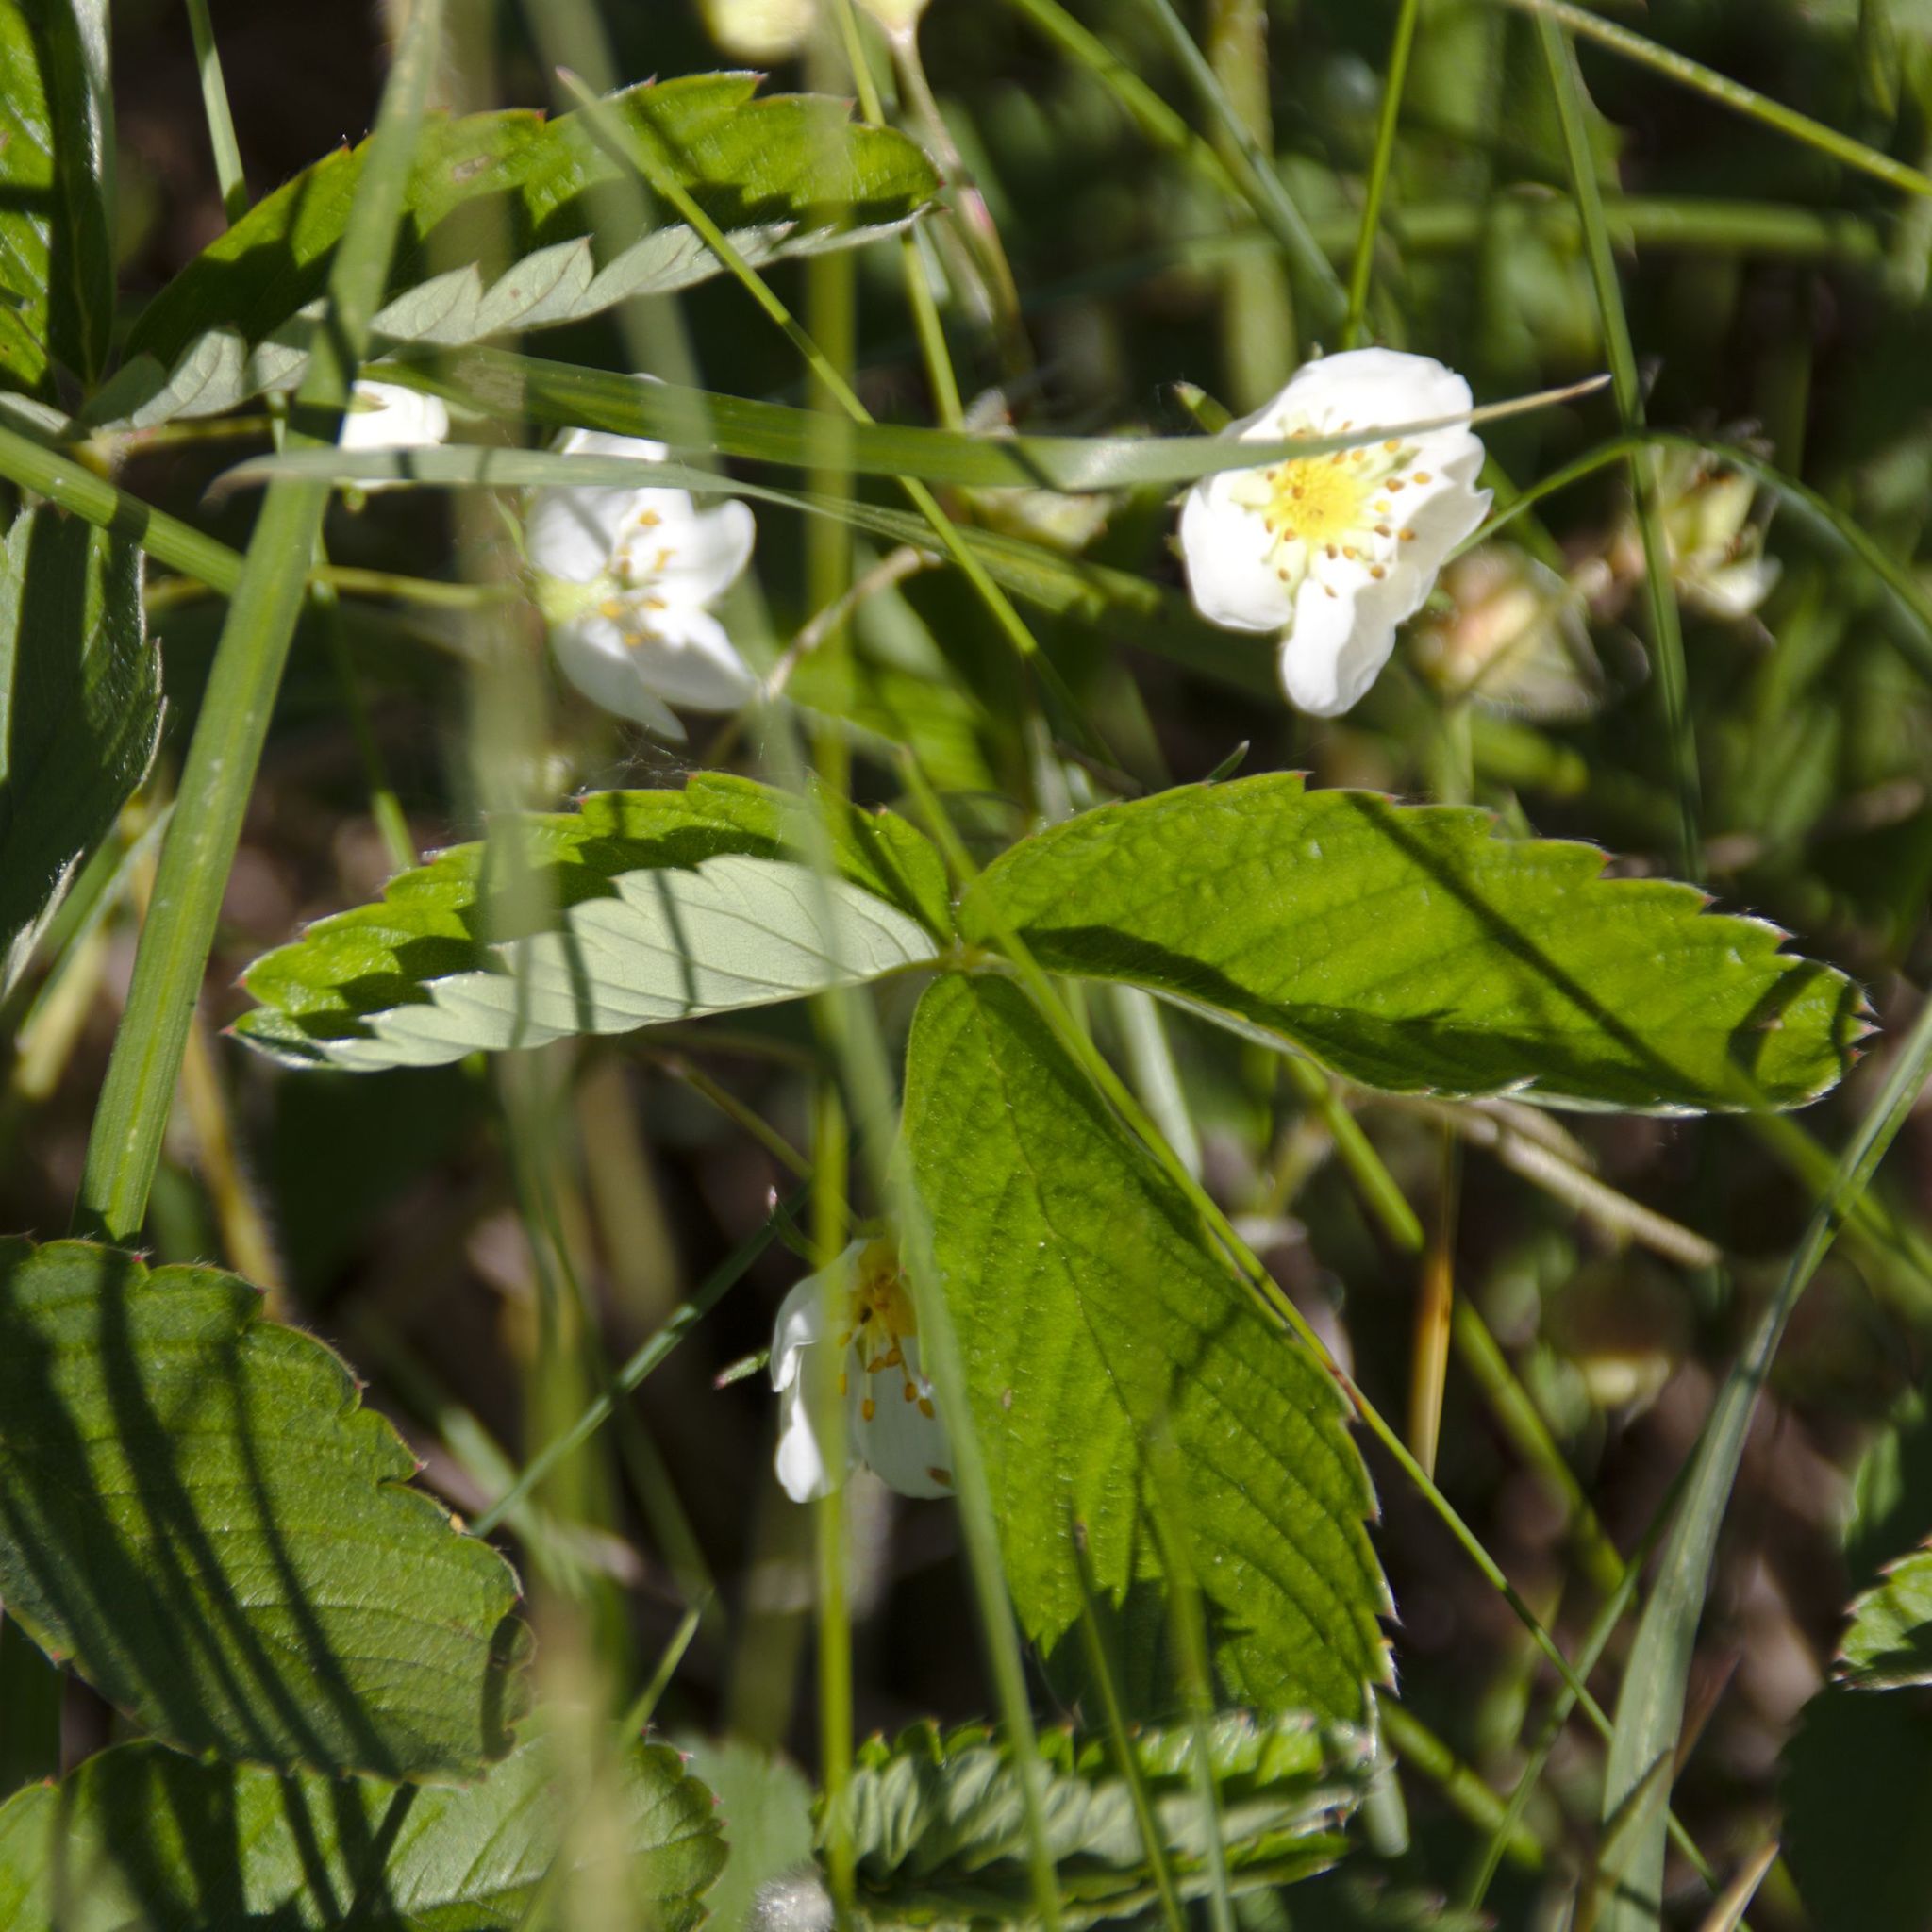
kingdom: Plantae
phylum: Tracheophyta
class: Magnoliopsida
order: Rosales
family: Rosaceae
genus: Fragaria
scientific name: Fragaria viridis
